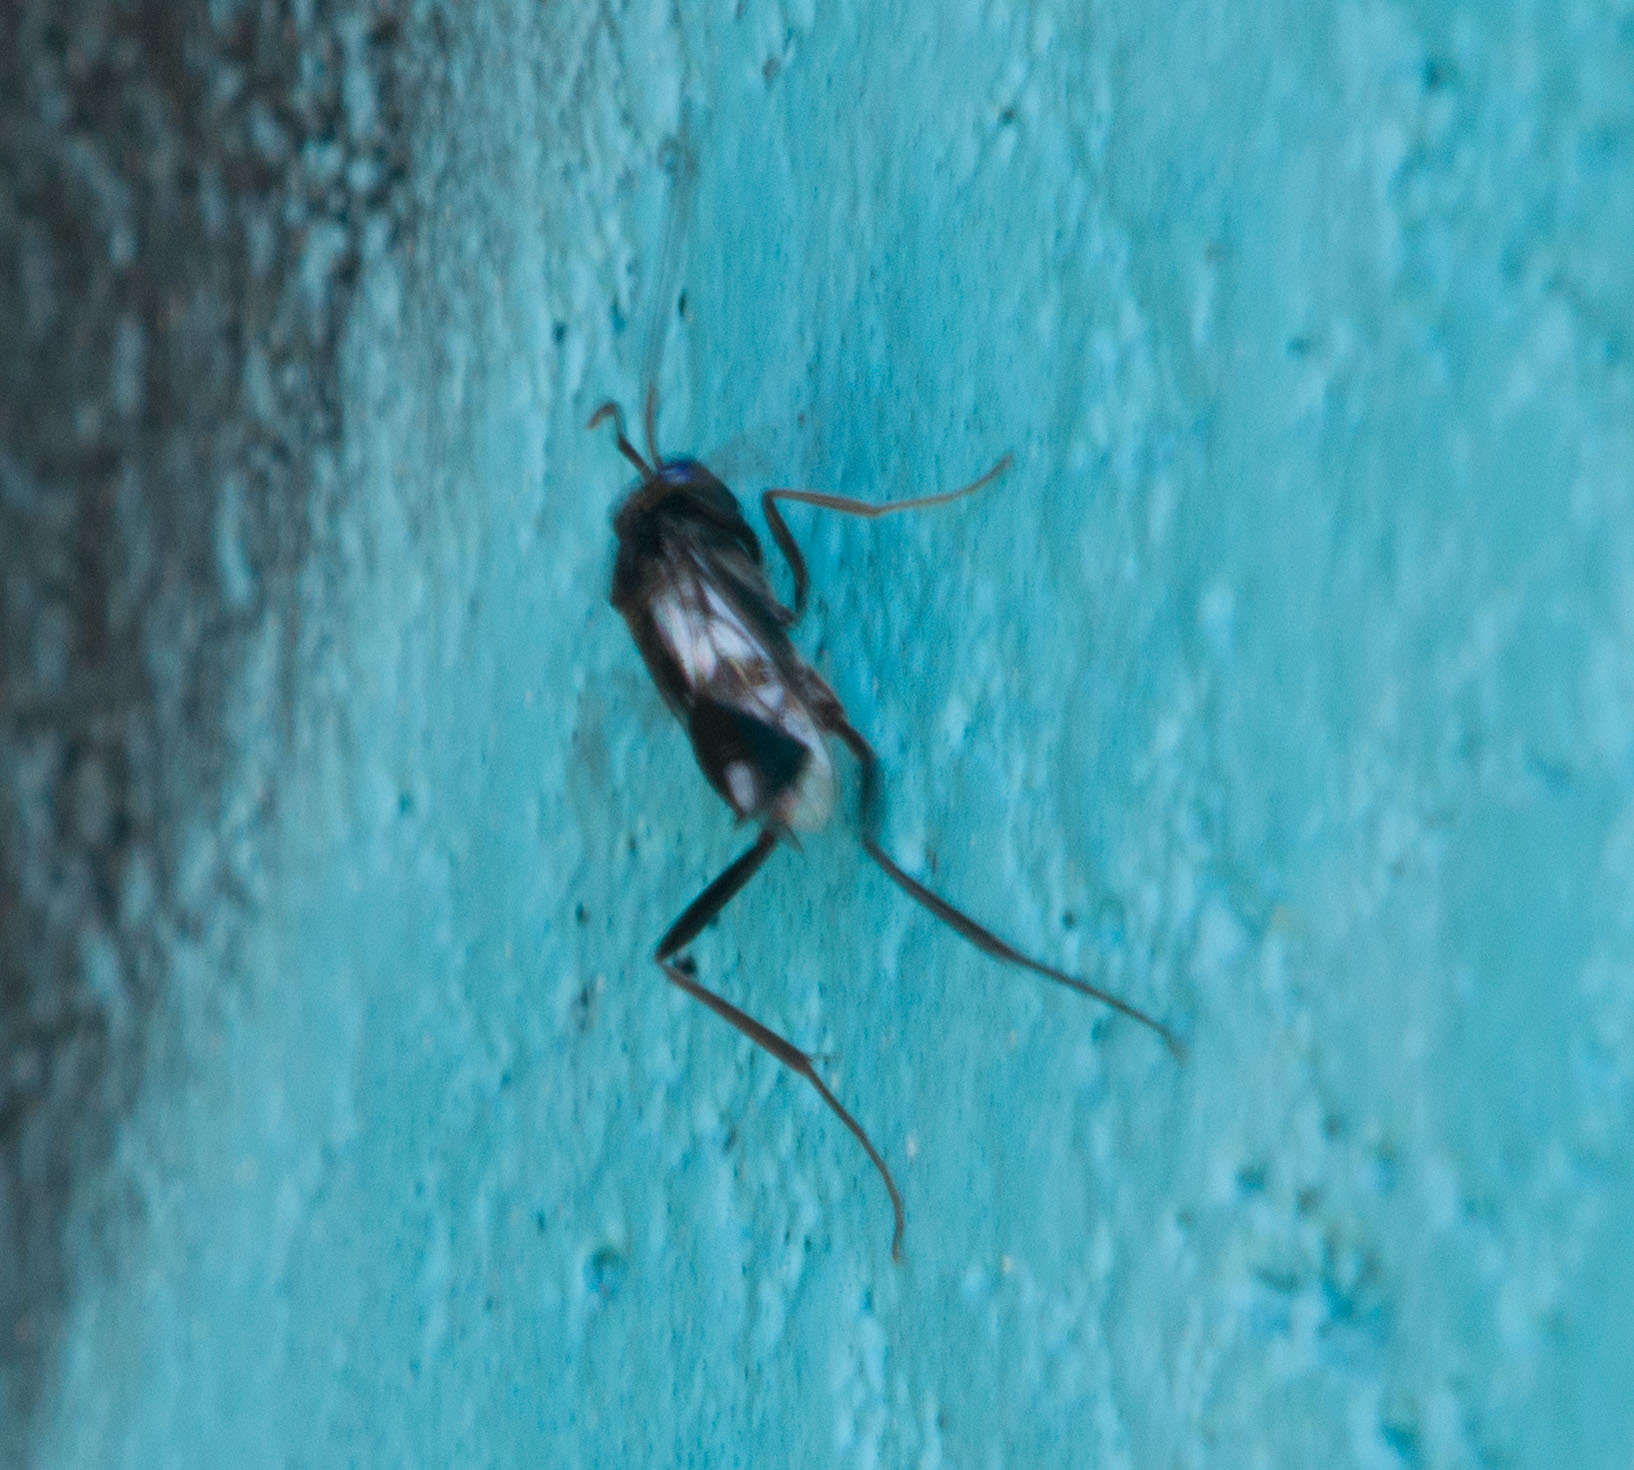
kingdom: Animalia
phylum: Arthropoda
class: Insecta
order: Hymenoptera
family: Evaniidae
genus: Evania
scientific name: Evania appendigaster
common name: Ensign wasp
